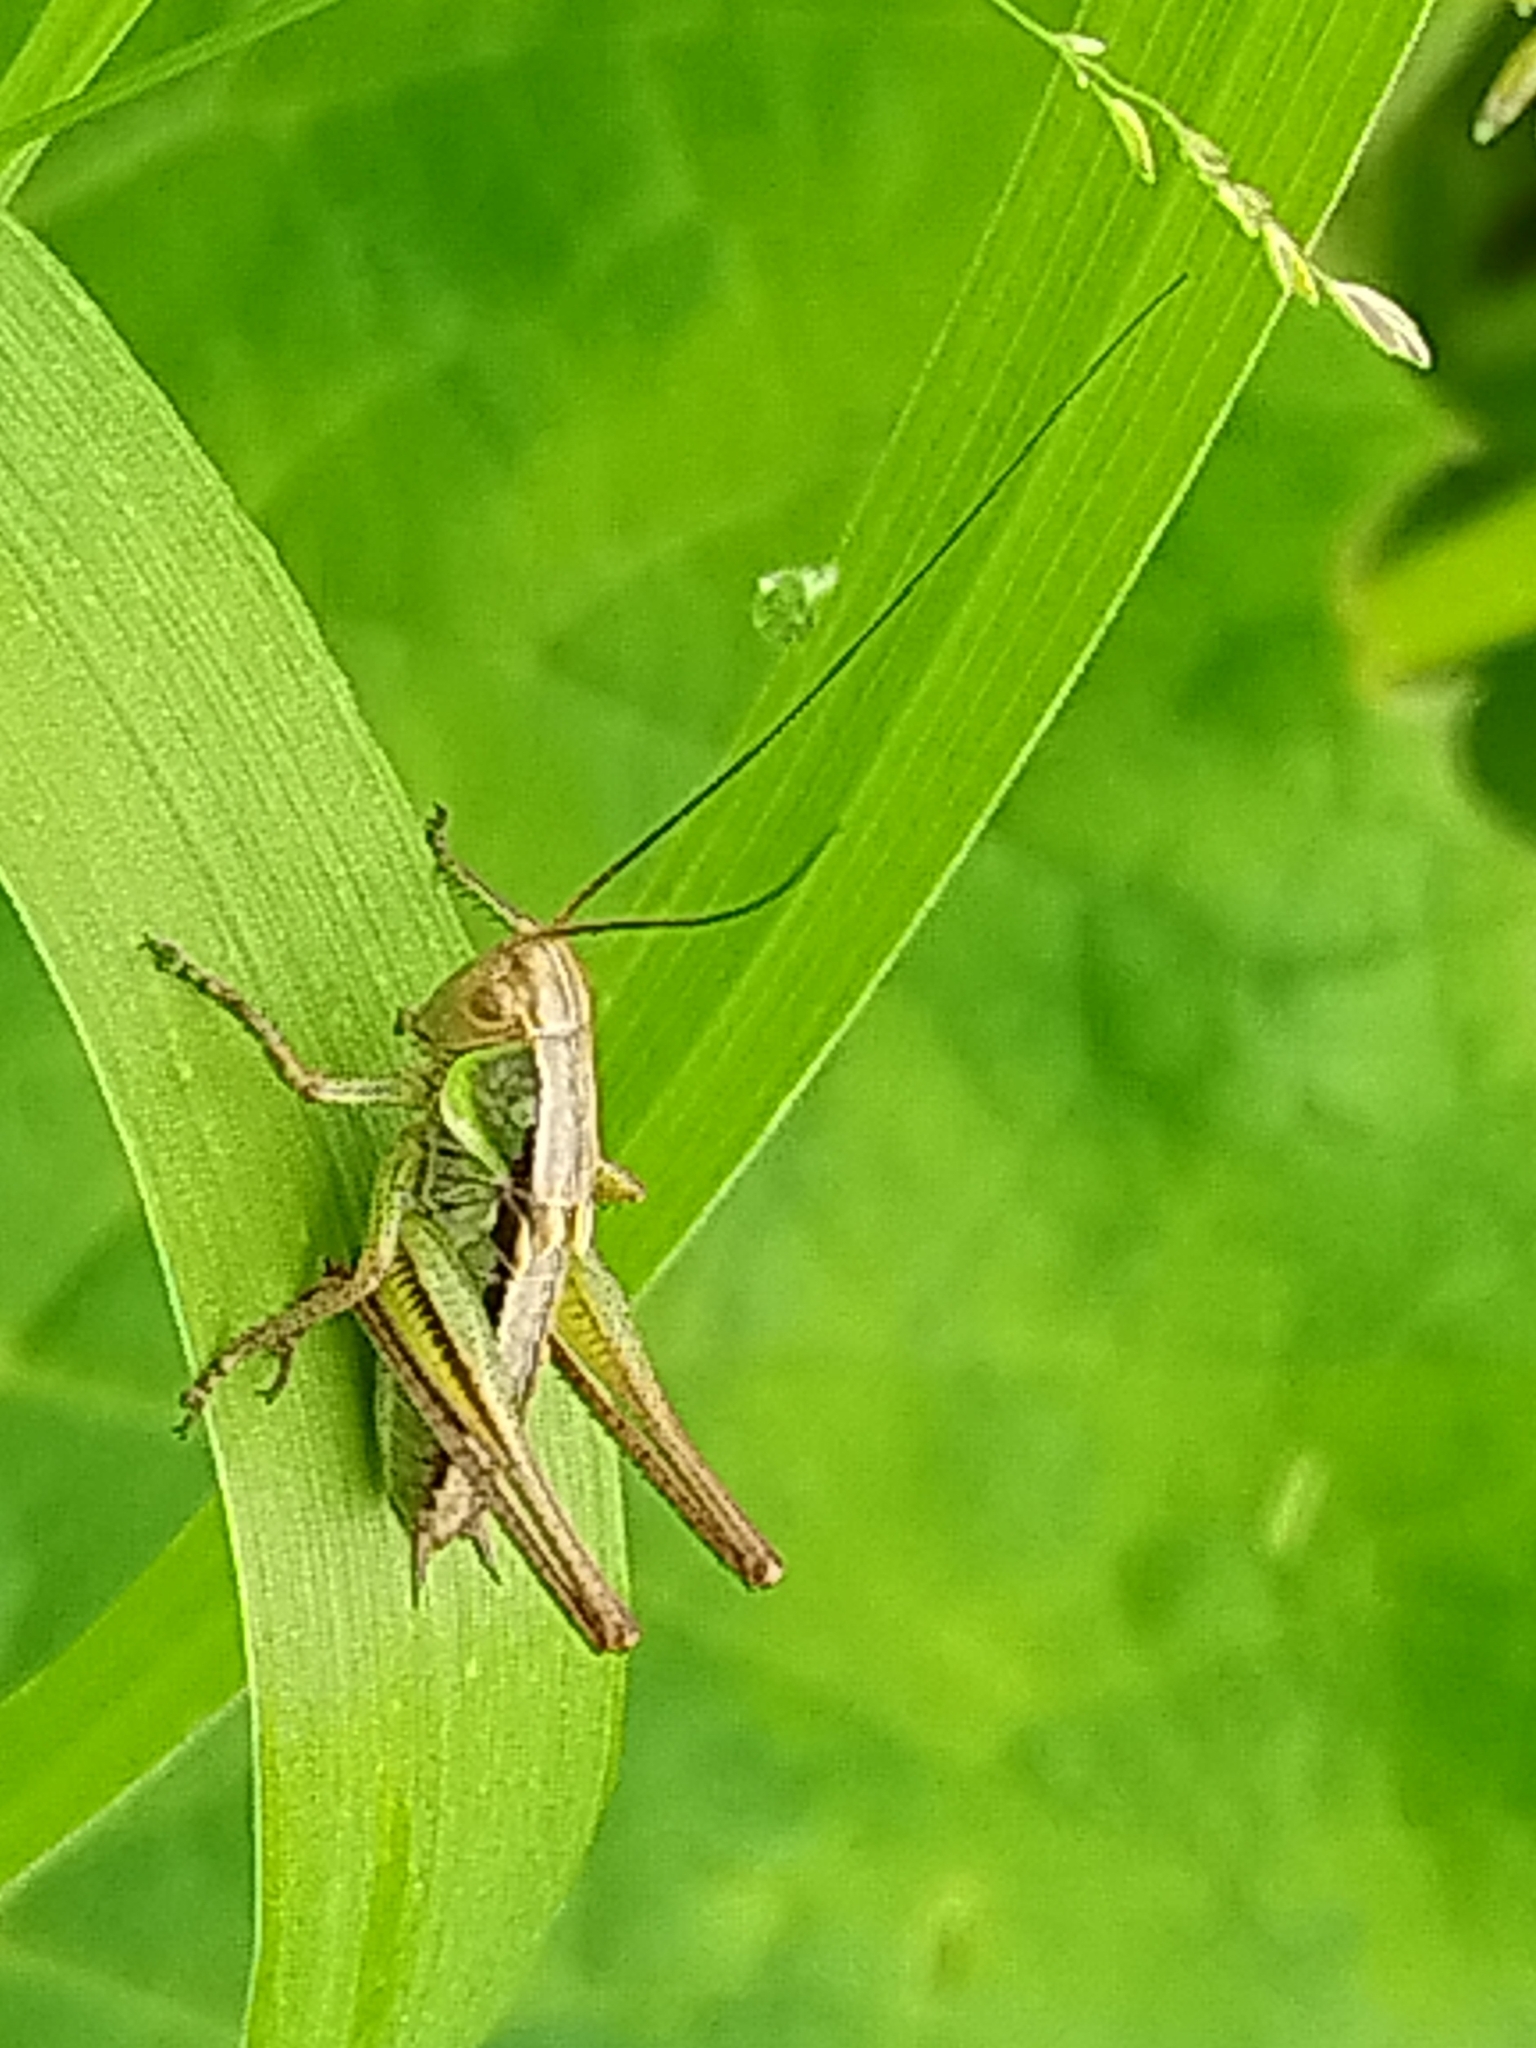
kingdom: Animalia
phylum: Arthropoda
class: Insecta
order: Orthoptera
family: Tettigoniidae
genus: Roeseliana
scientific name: Roeseliana roeselii
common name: Roesel's bush cricket
